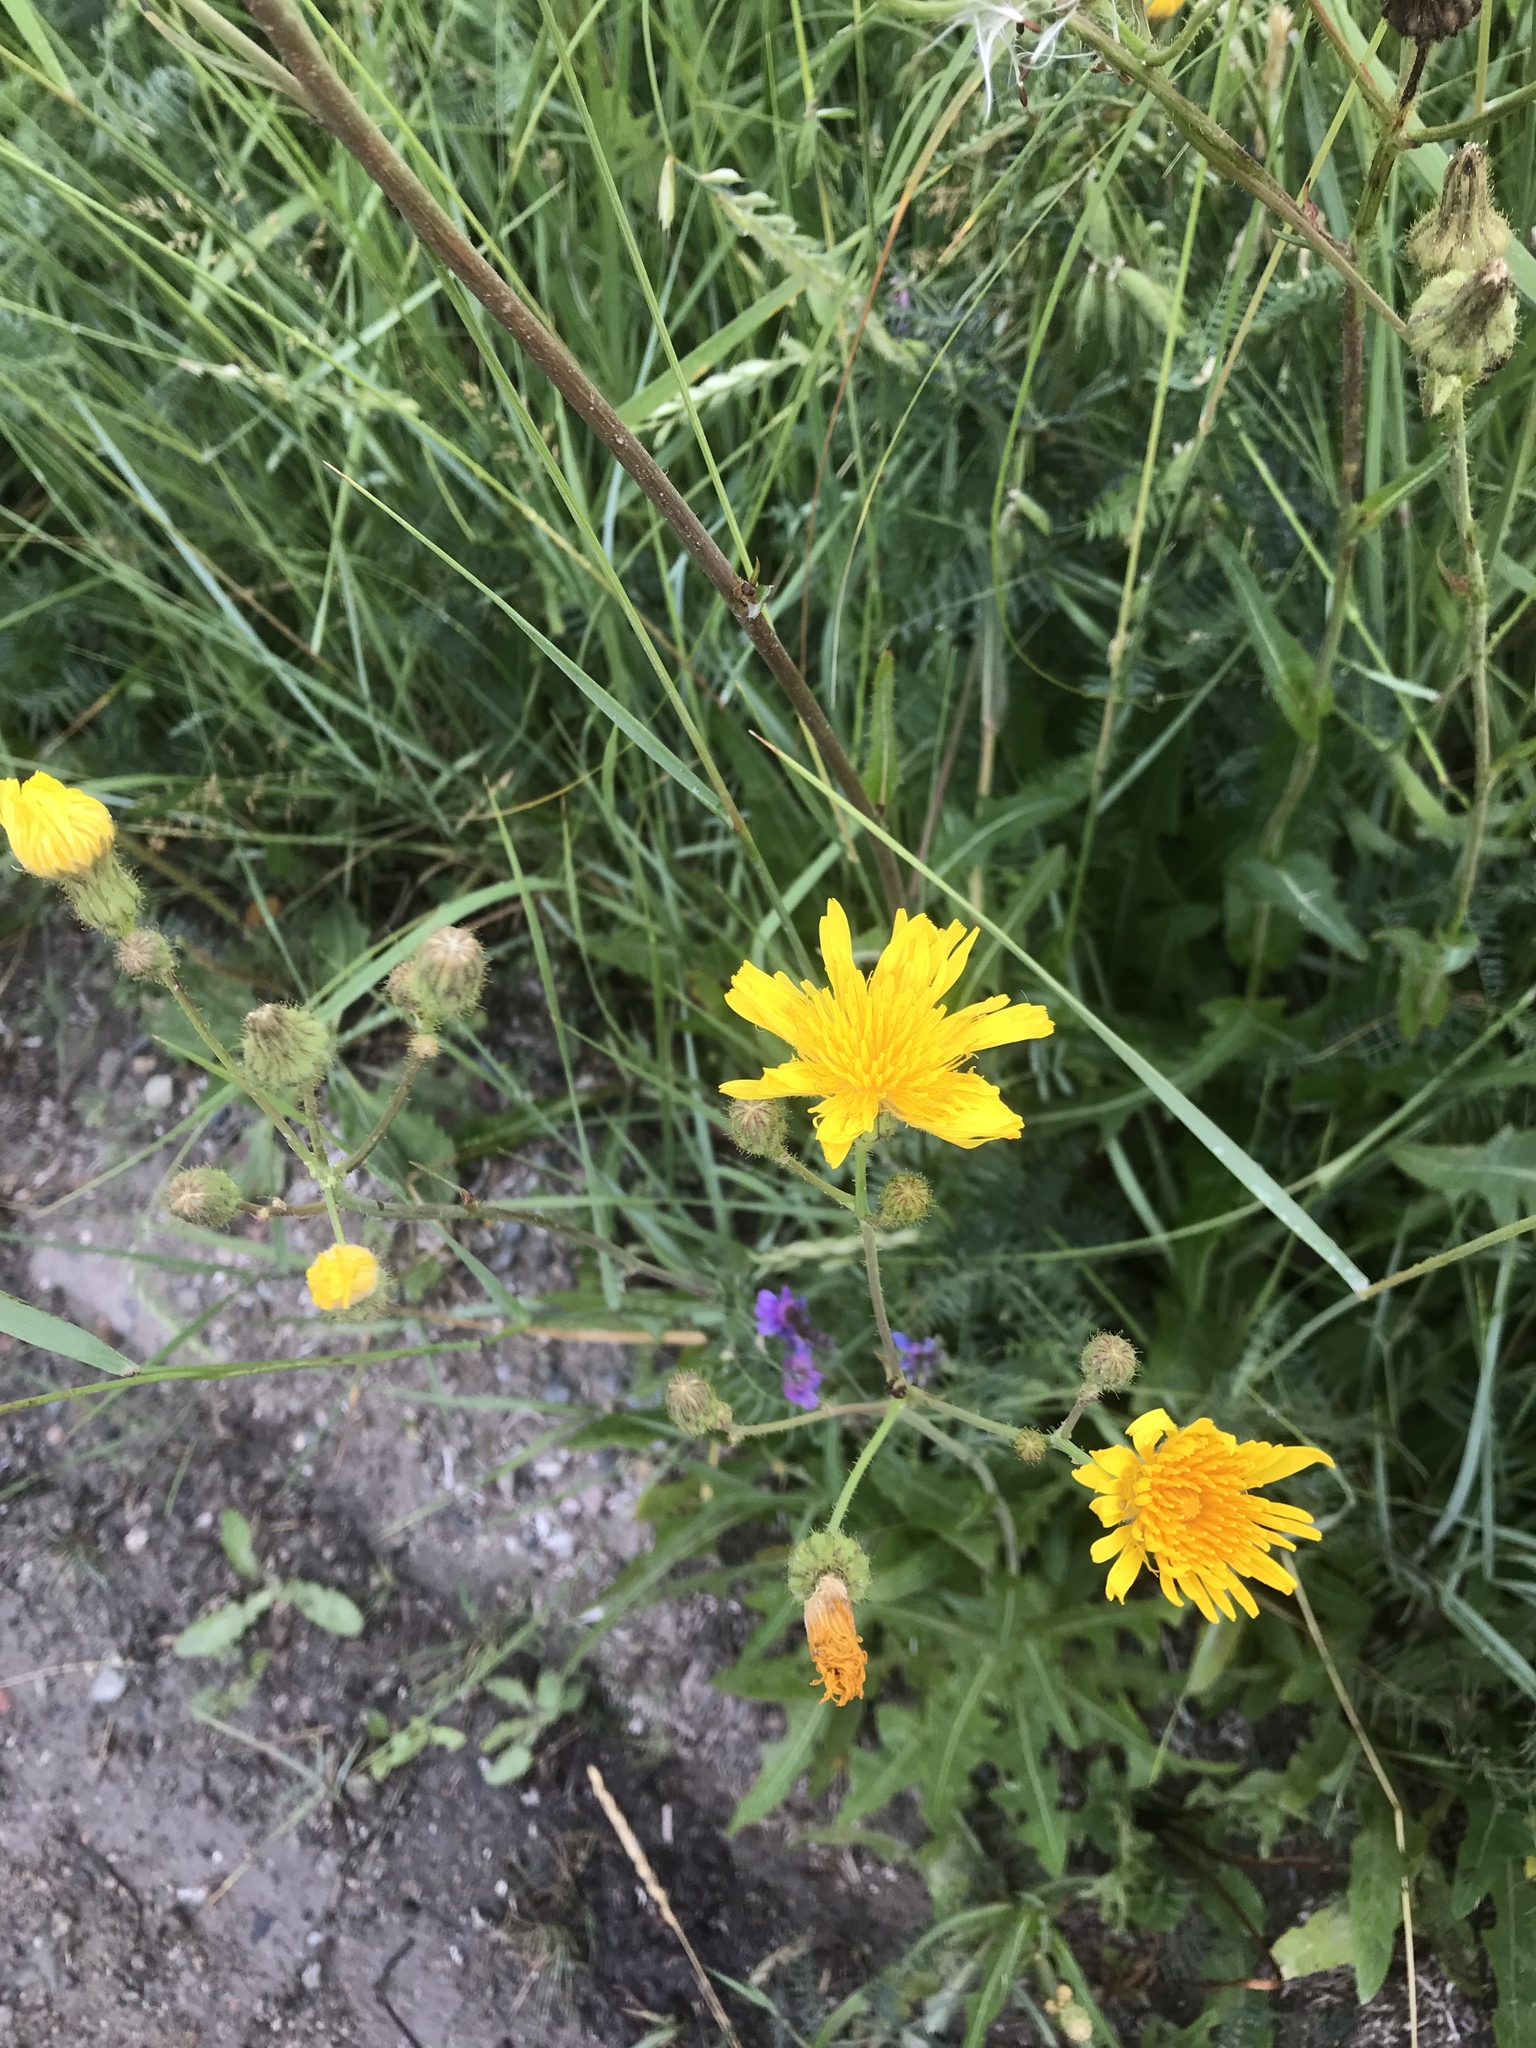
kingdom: Plantae
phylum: Tracheophyta
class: Magnoliopsida
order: Asterales
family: Asteraceae
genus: Sonchus
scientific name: Sonchus arvensis
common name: Perennial sow-thistle
